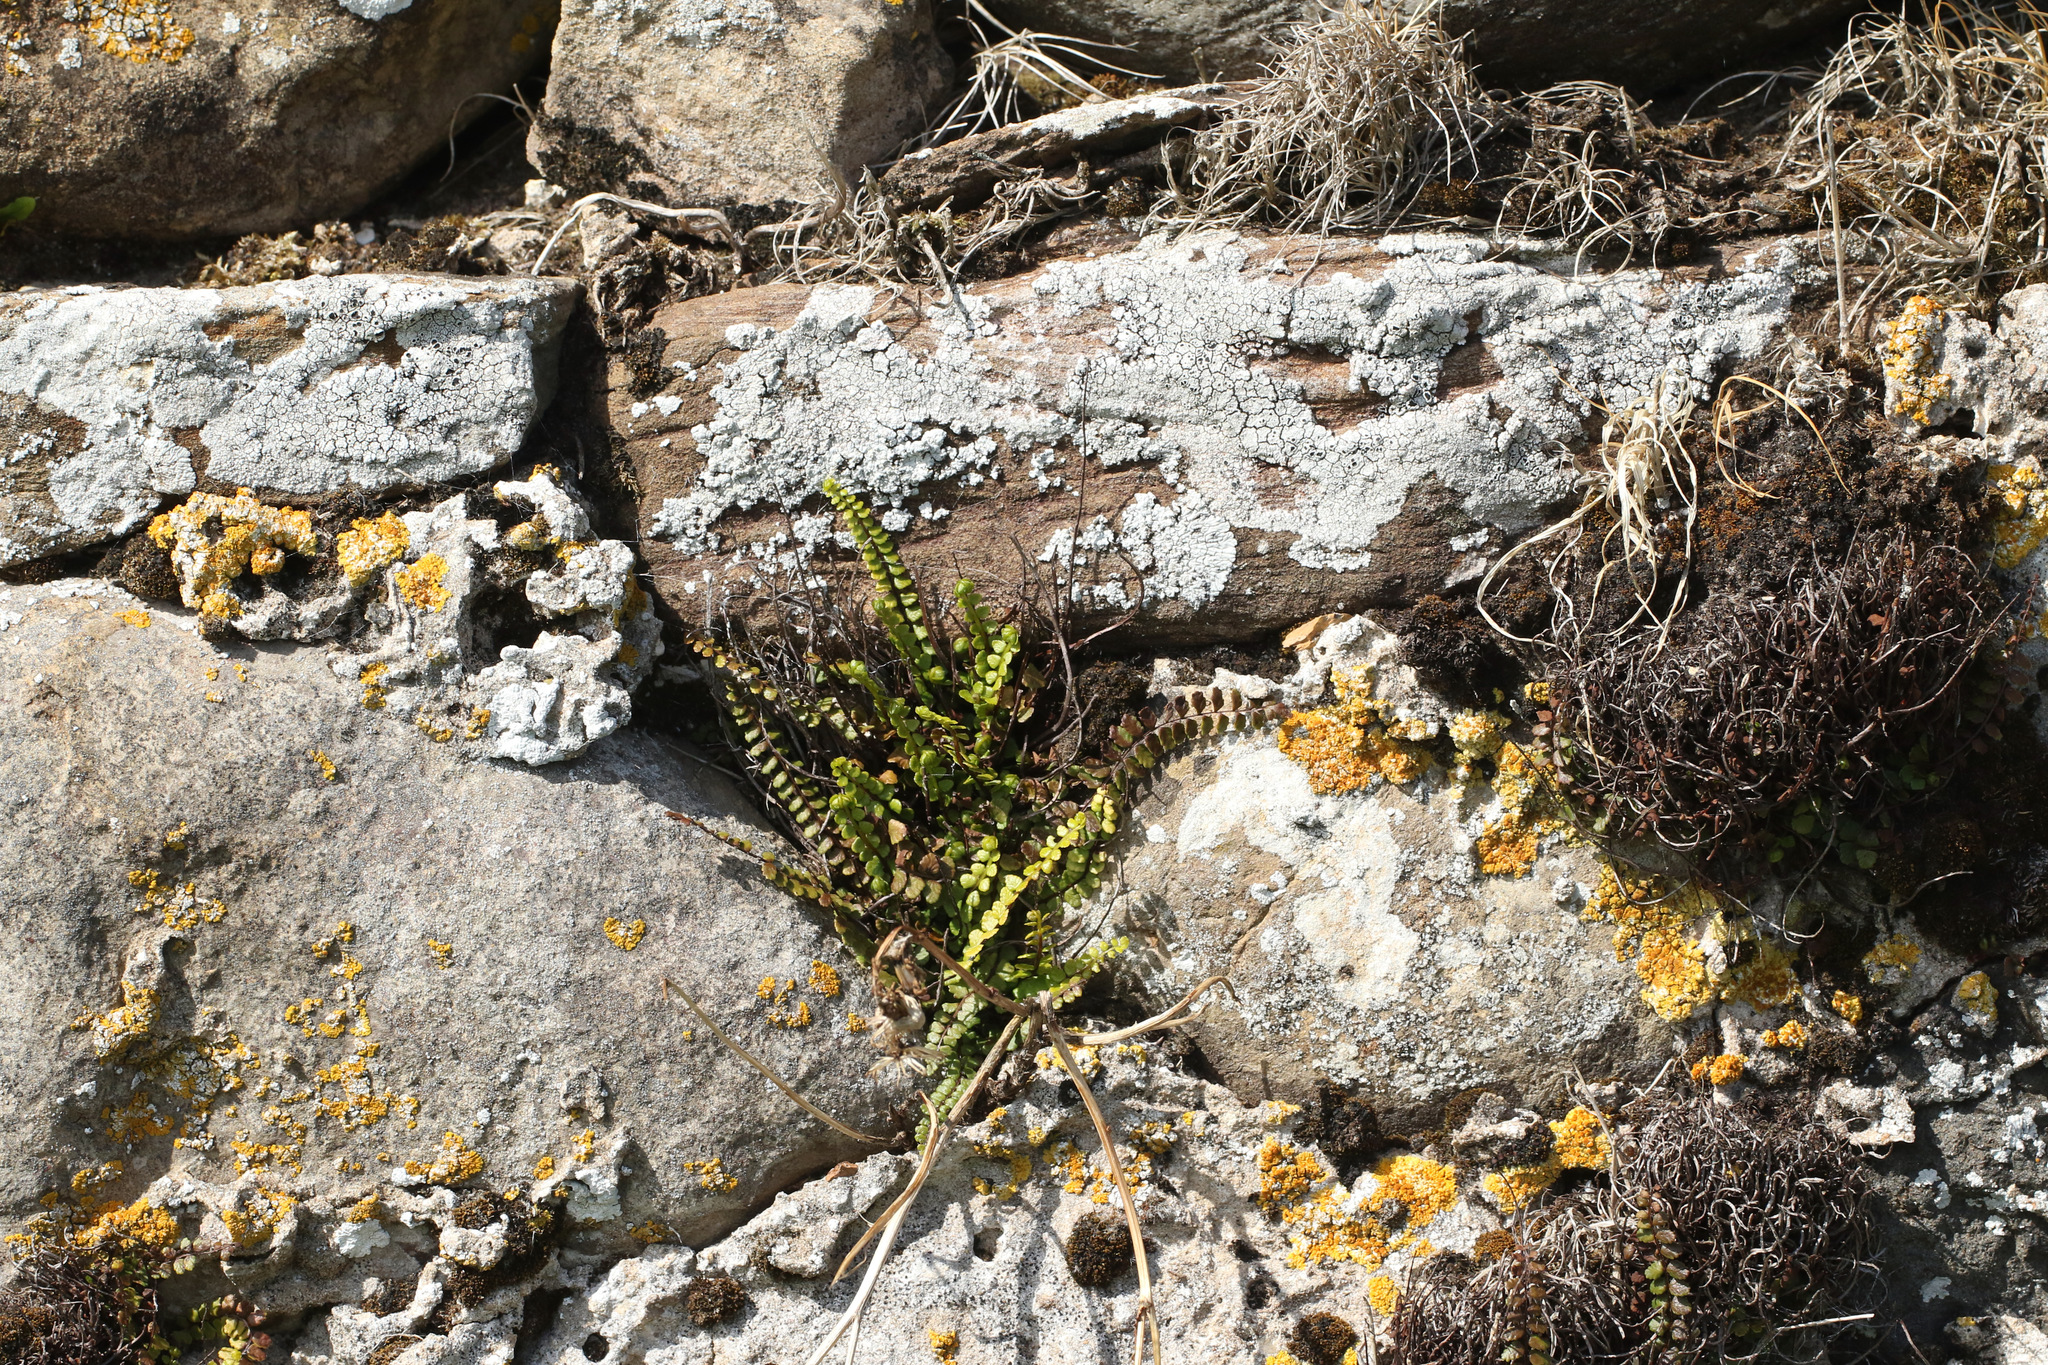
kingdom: Plantae
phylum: Tracheophyta
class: Polypodiopsida
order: Polypodiales
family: Aspleniaceae
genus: Asplenium
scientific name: Asplenium trichomanes
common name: Maidenhair spleenwort
